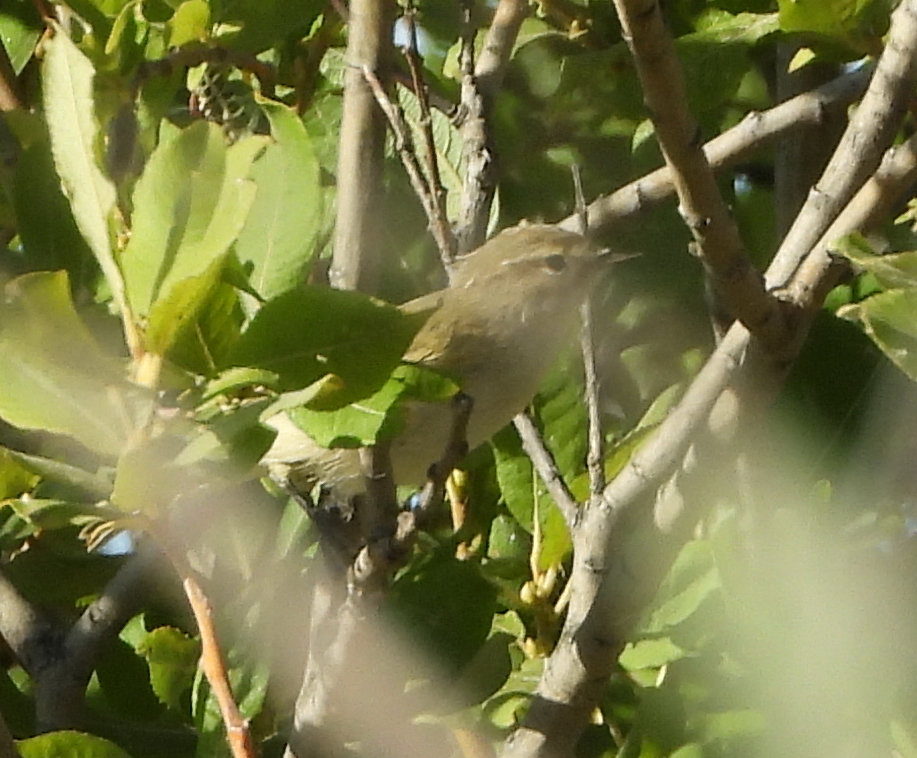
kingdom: Animalia
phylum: Chordata
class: Aves
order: Passeriformes
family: Phylloscopidae
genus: Phylloscopus
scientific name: Phylloscopus collybita
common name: Common chiffchaff
